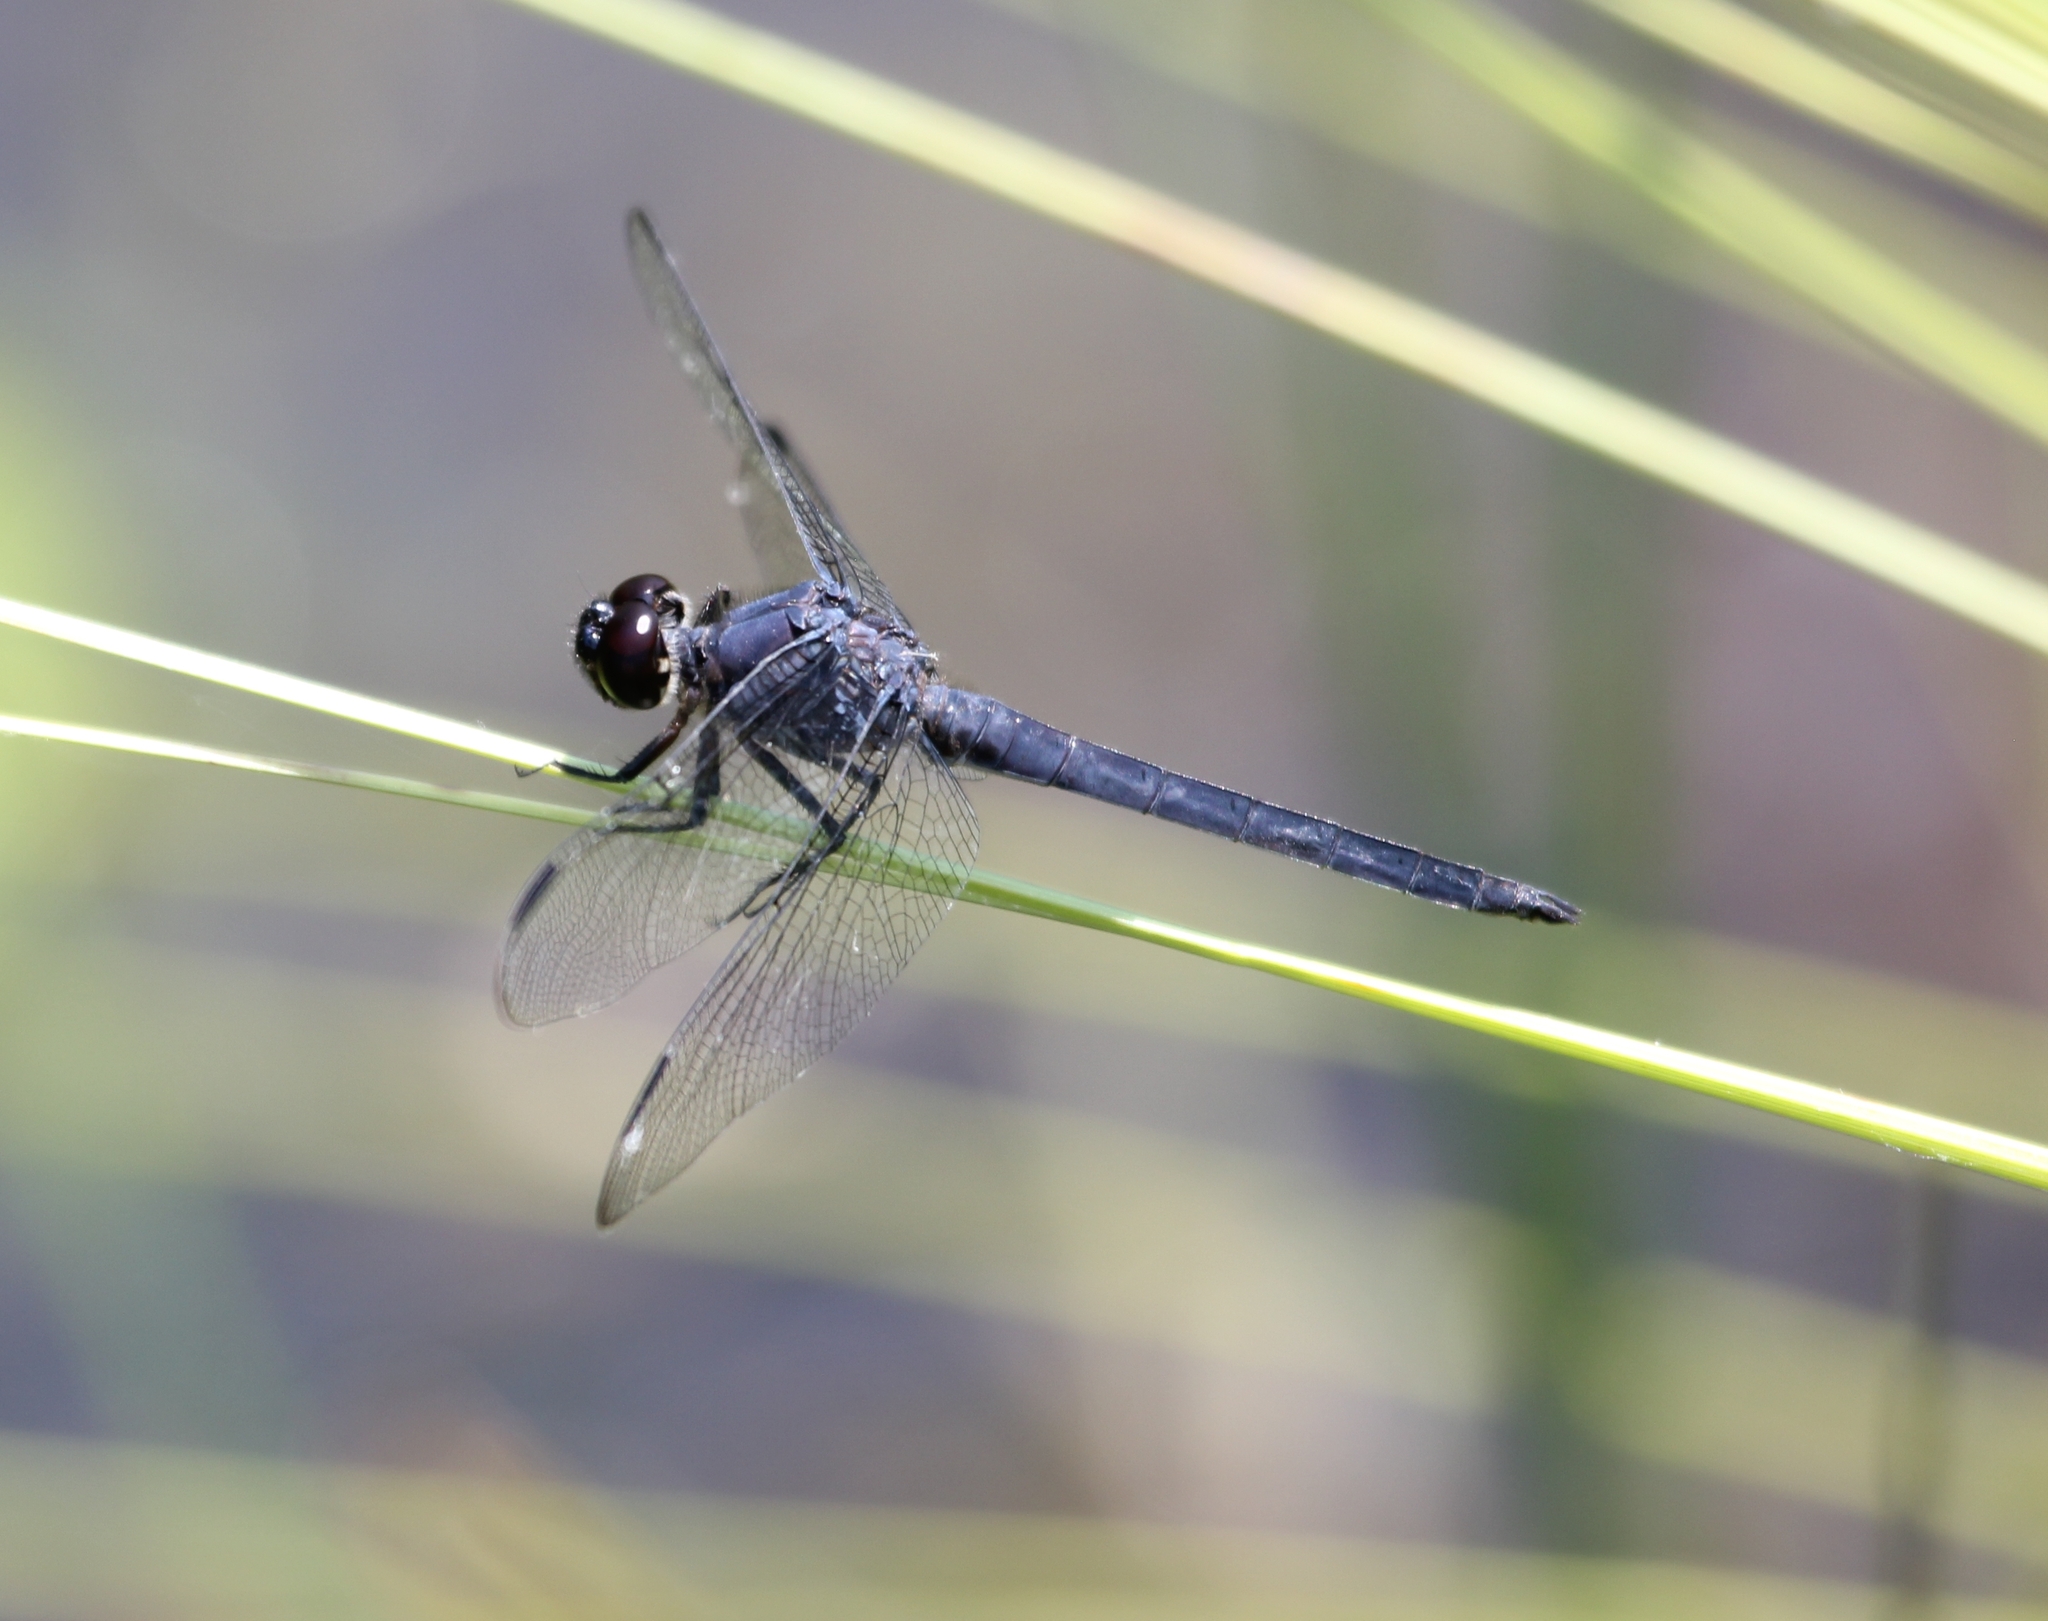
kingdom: Animalia
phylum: Arthropoda
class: Insecta
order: Odonata
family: Libellulidae
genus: Libellula
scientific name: Libellula incesta
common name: Slaty skimmer
